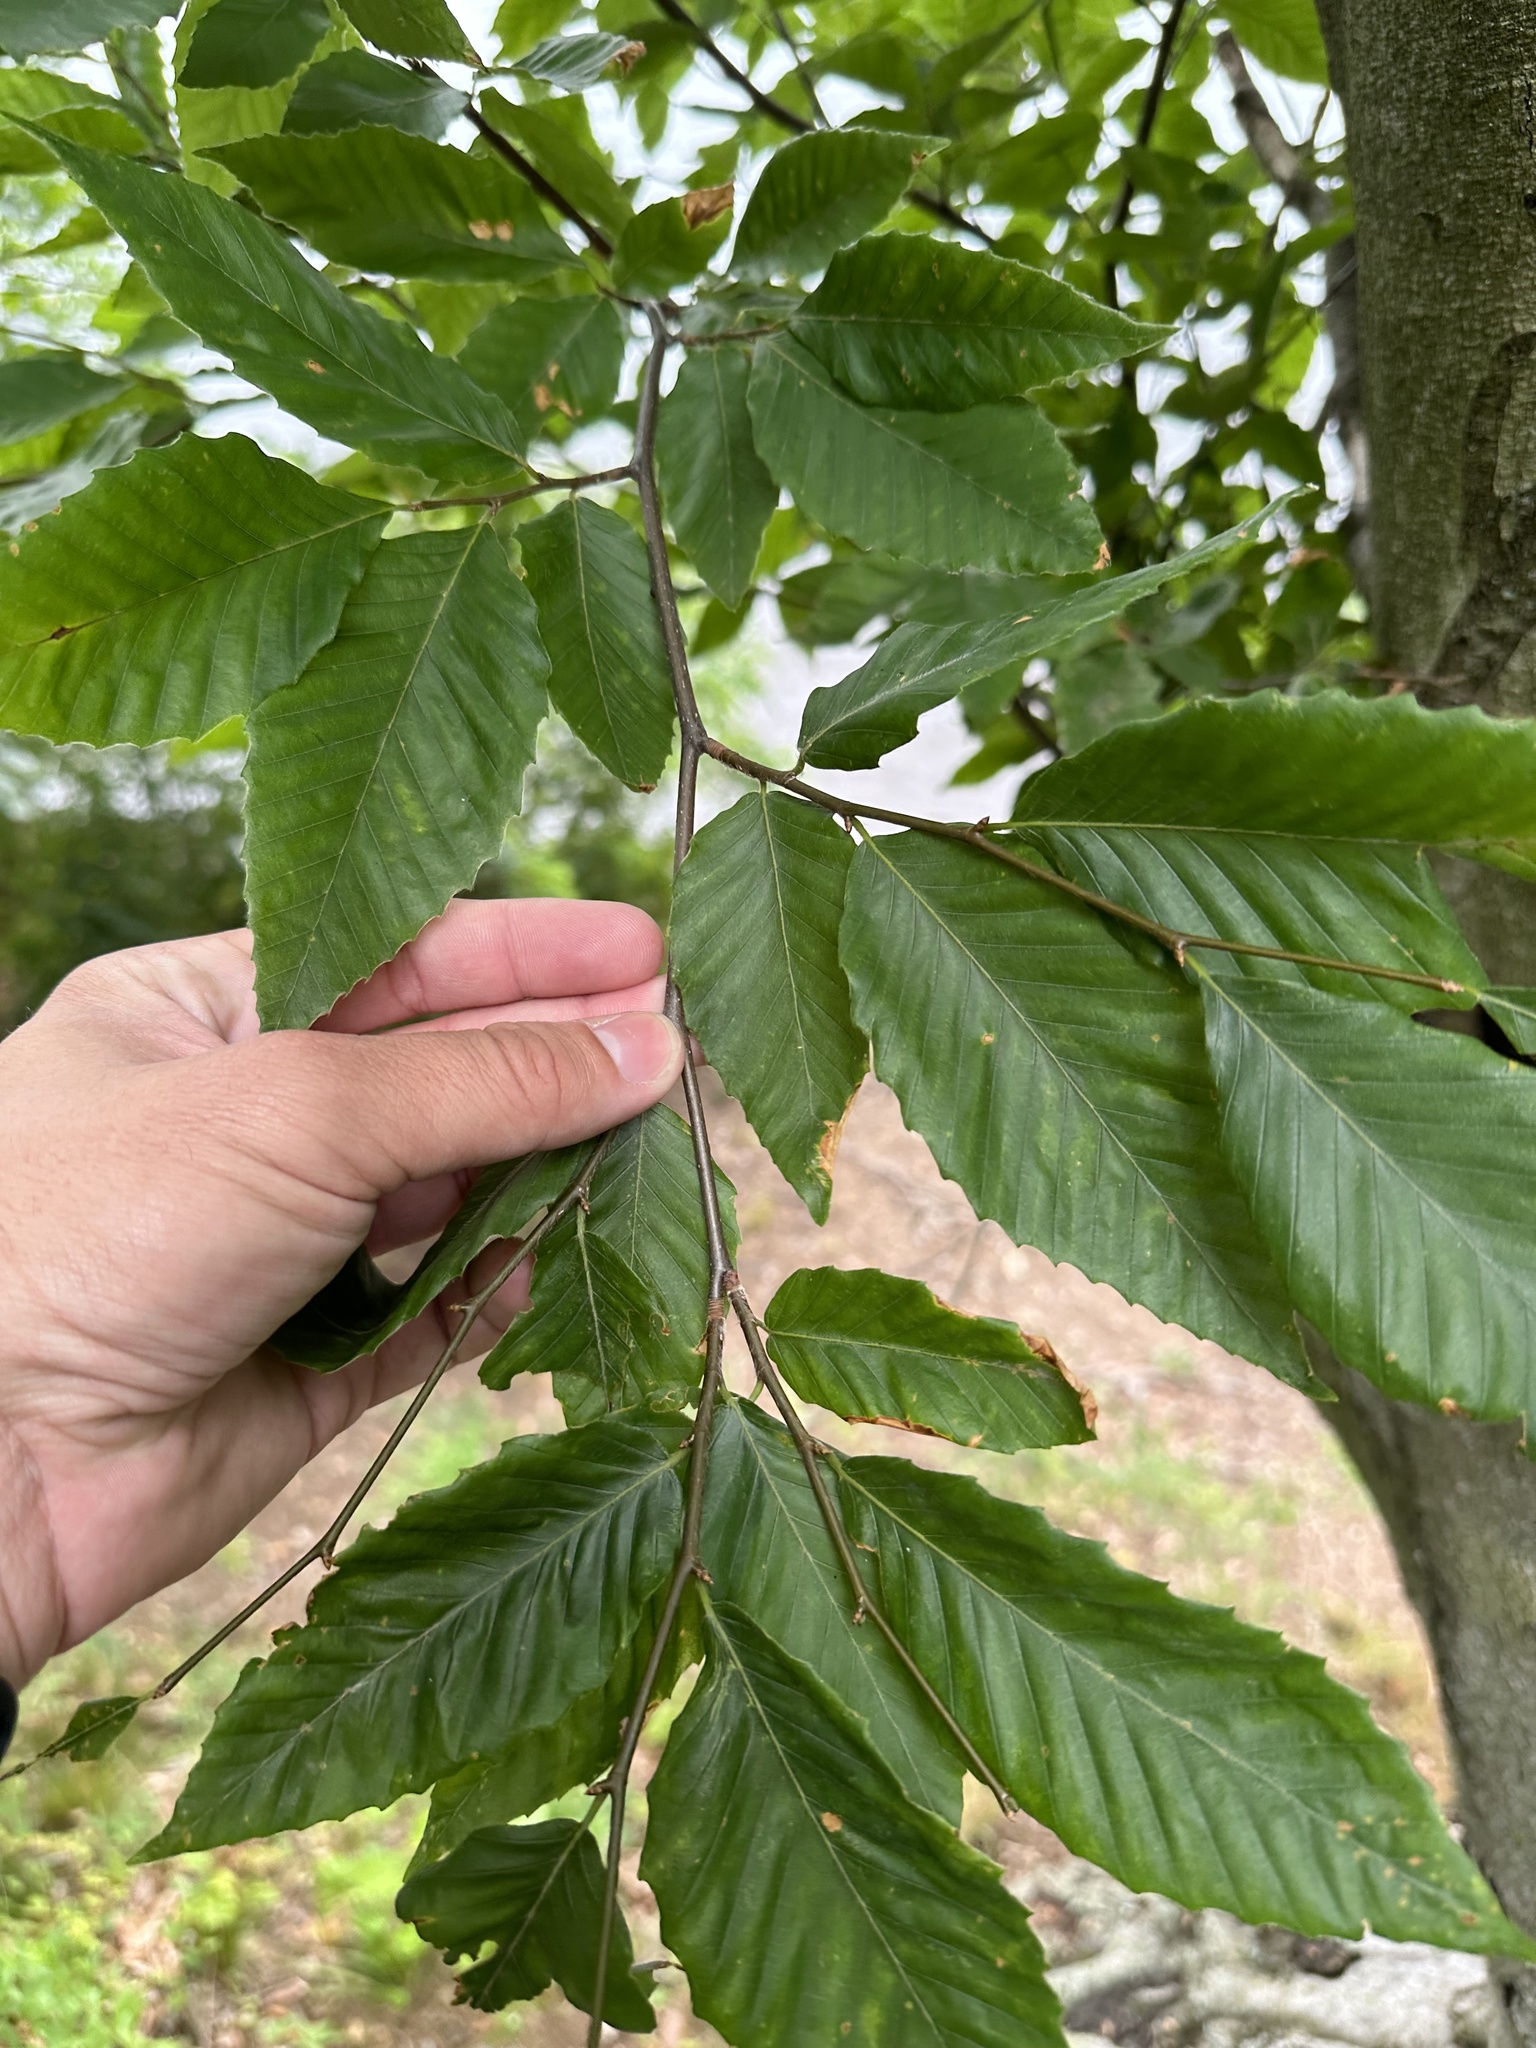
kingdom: Plantae
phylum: Tracheophyta
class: Magnoliopsida
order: Fagales
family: Fagaceae
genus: Fagus
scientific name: Fagus grandifolia
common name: American beech
